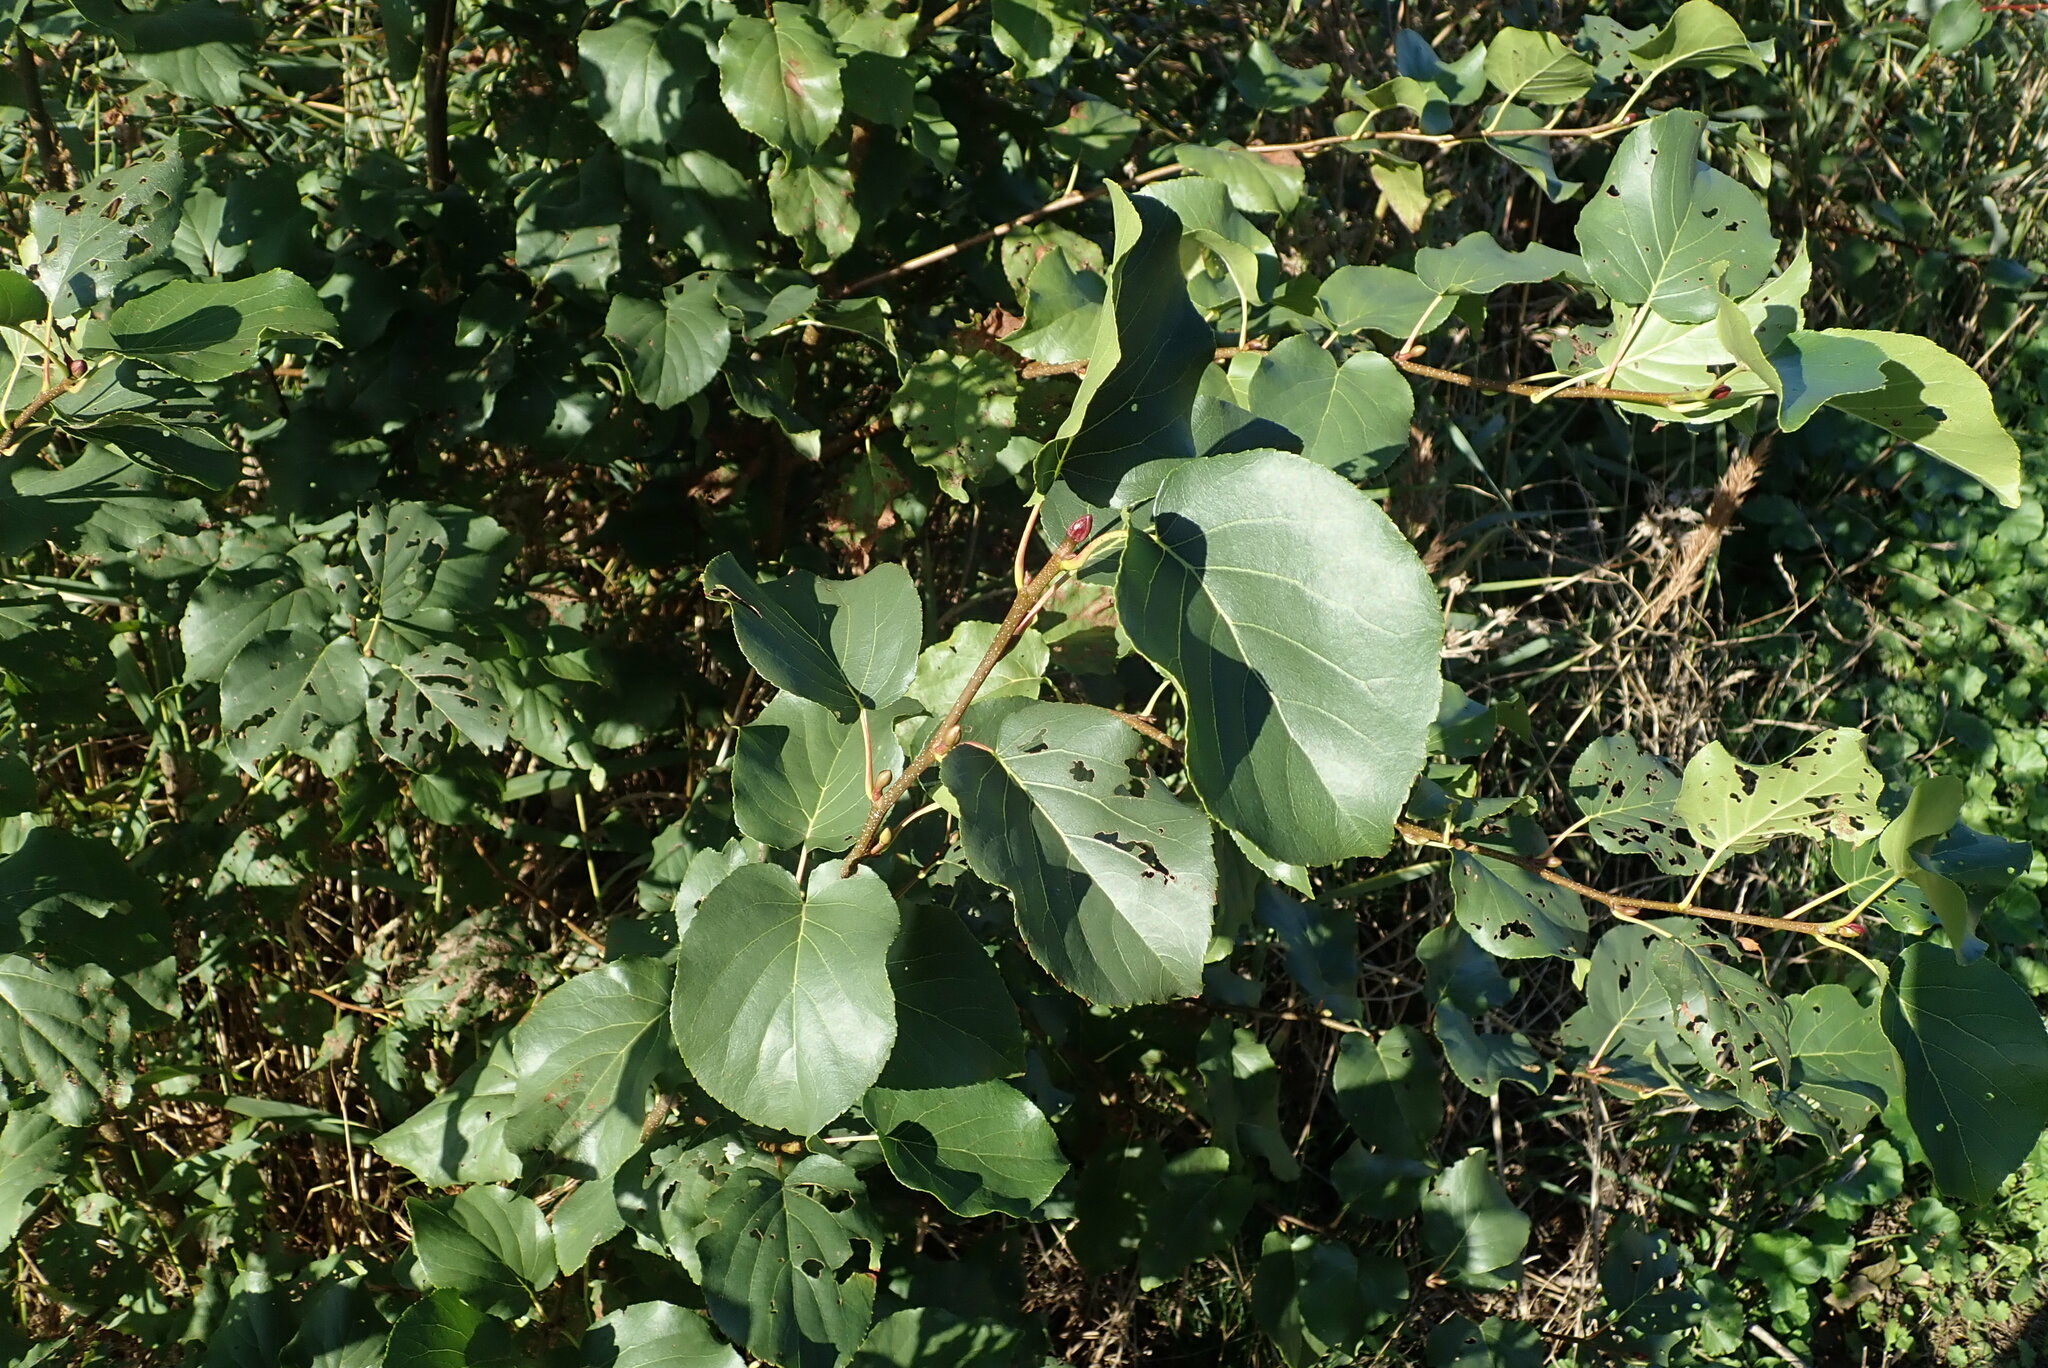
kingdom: Plantae
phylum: Tracheophyta
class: Magnoliopsida
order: Fagales
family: Betulaceae
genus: Alnus
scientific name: Alnus cordata
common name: Italian alder
